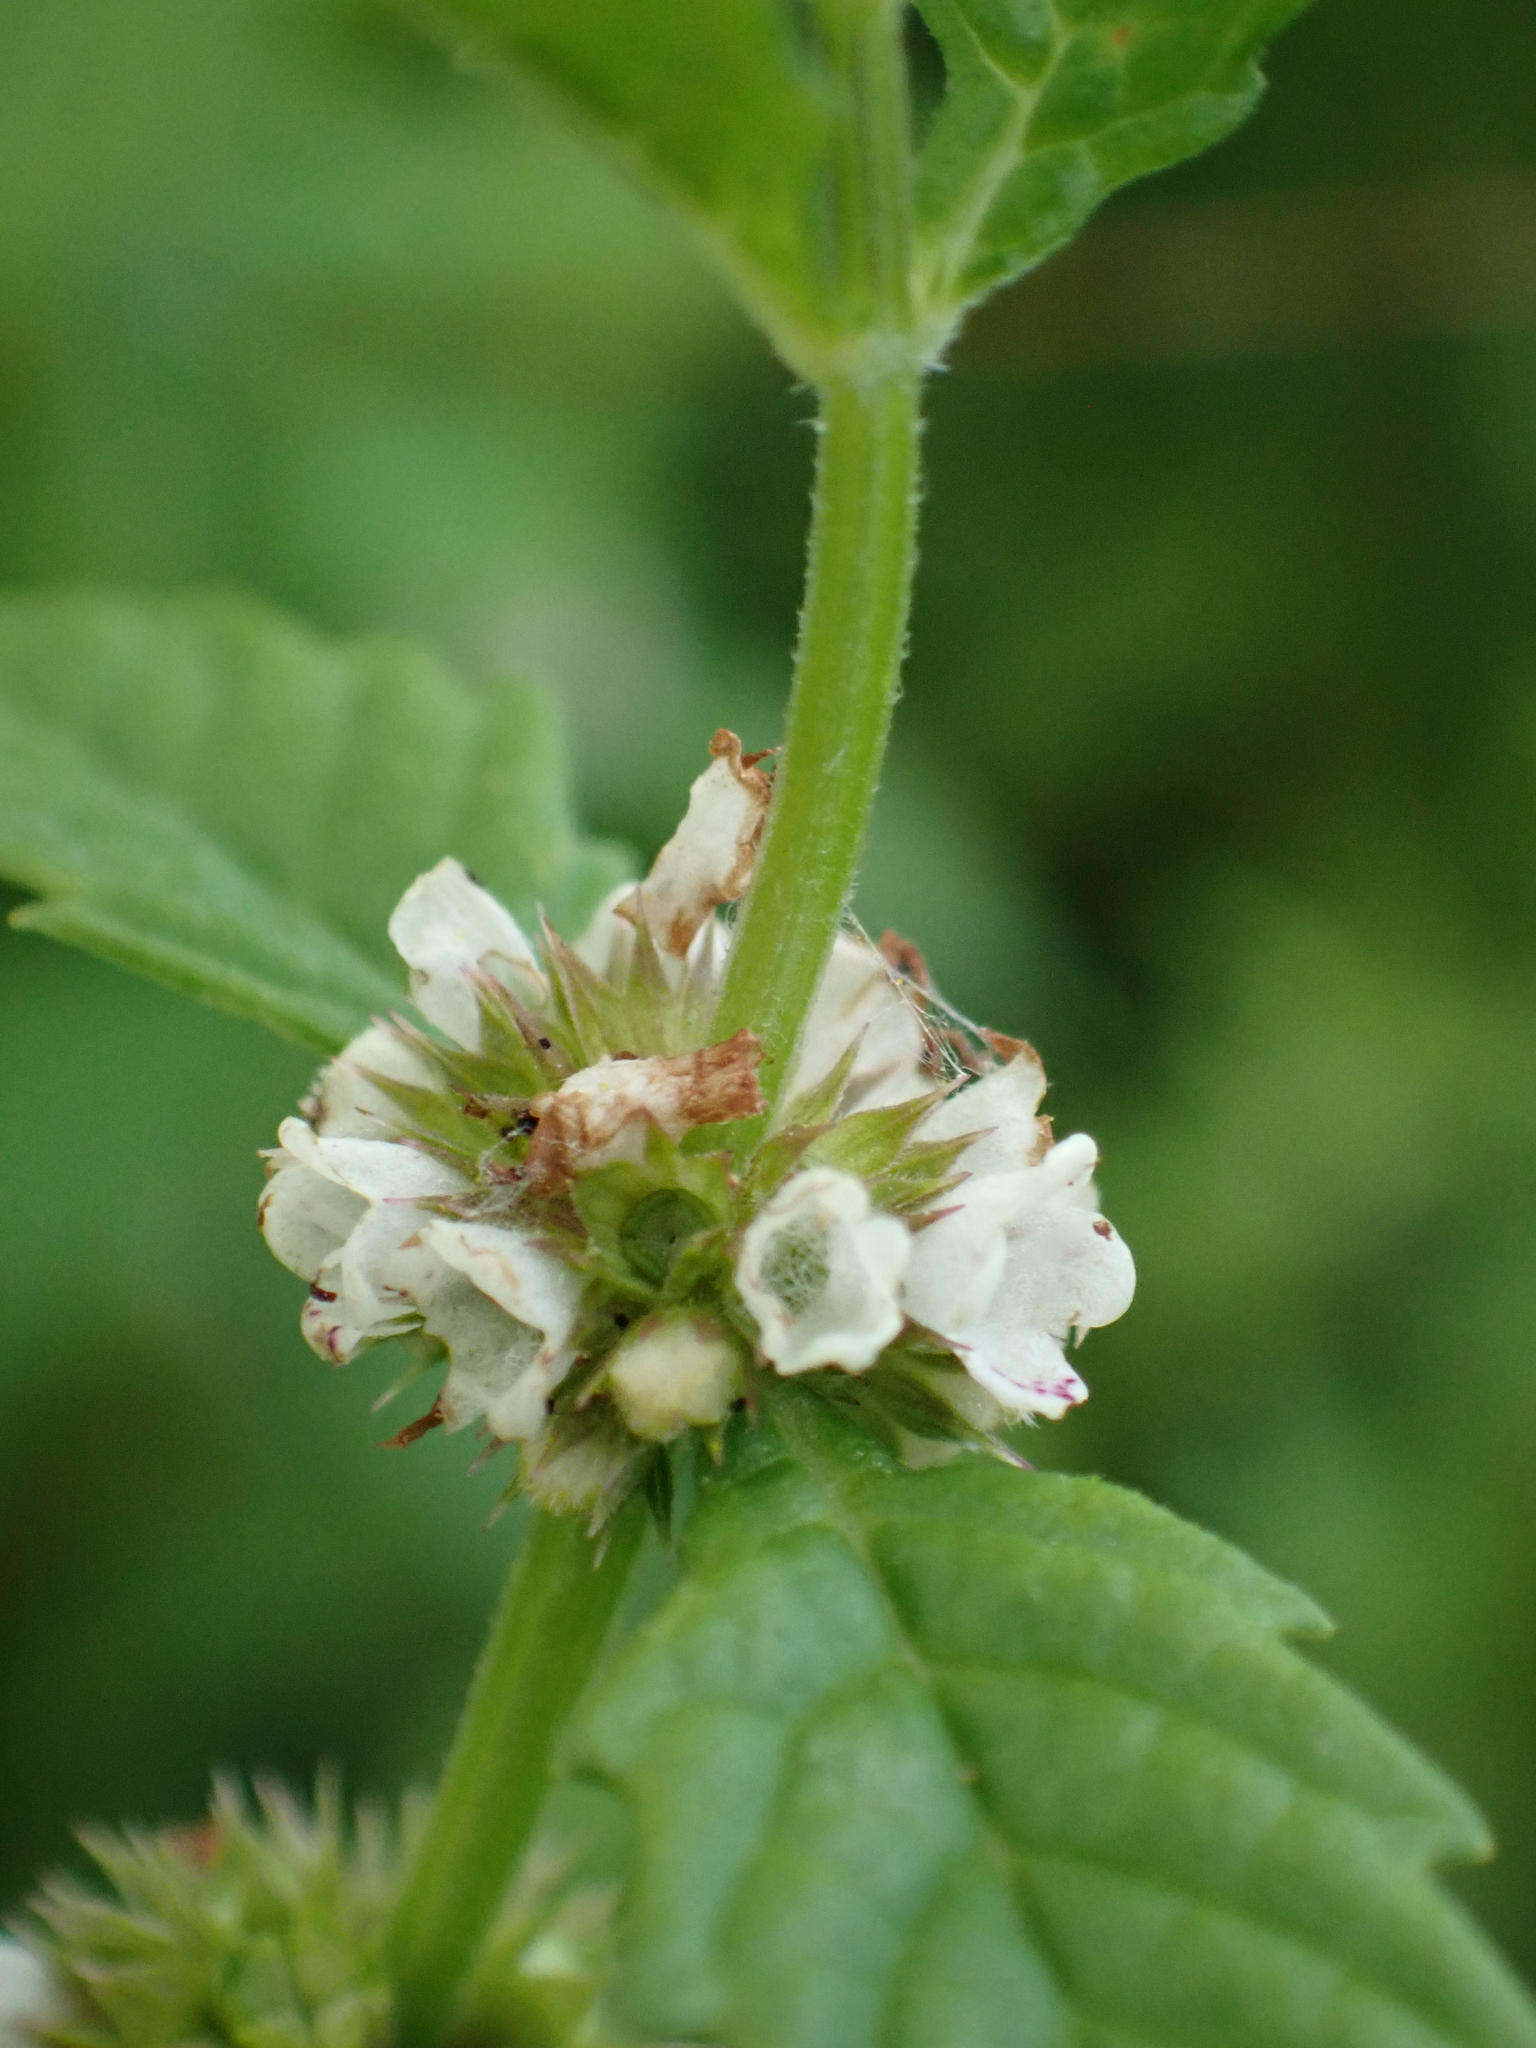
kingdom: Plantae
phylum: Tracheophyta
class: Magnoliopsida
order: Lamiales
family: Lamiaceae
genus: Lycopus
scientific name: Lycopus europaeus
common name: European bugleweed
